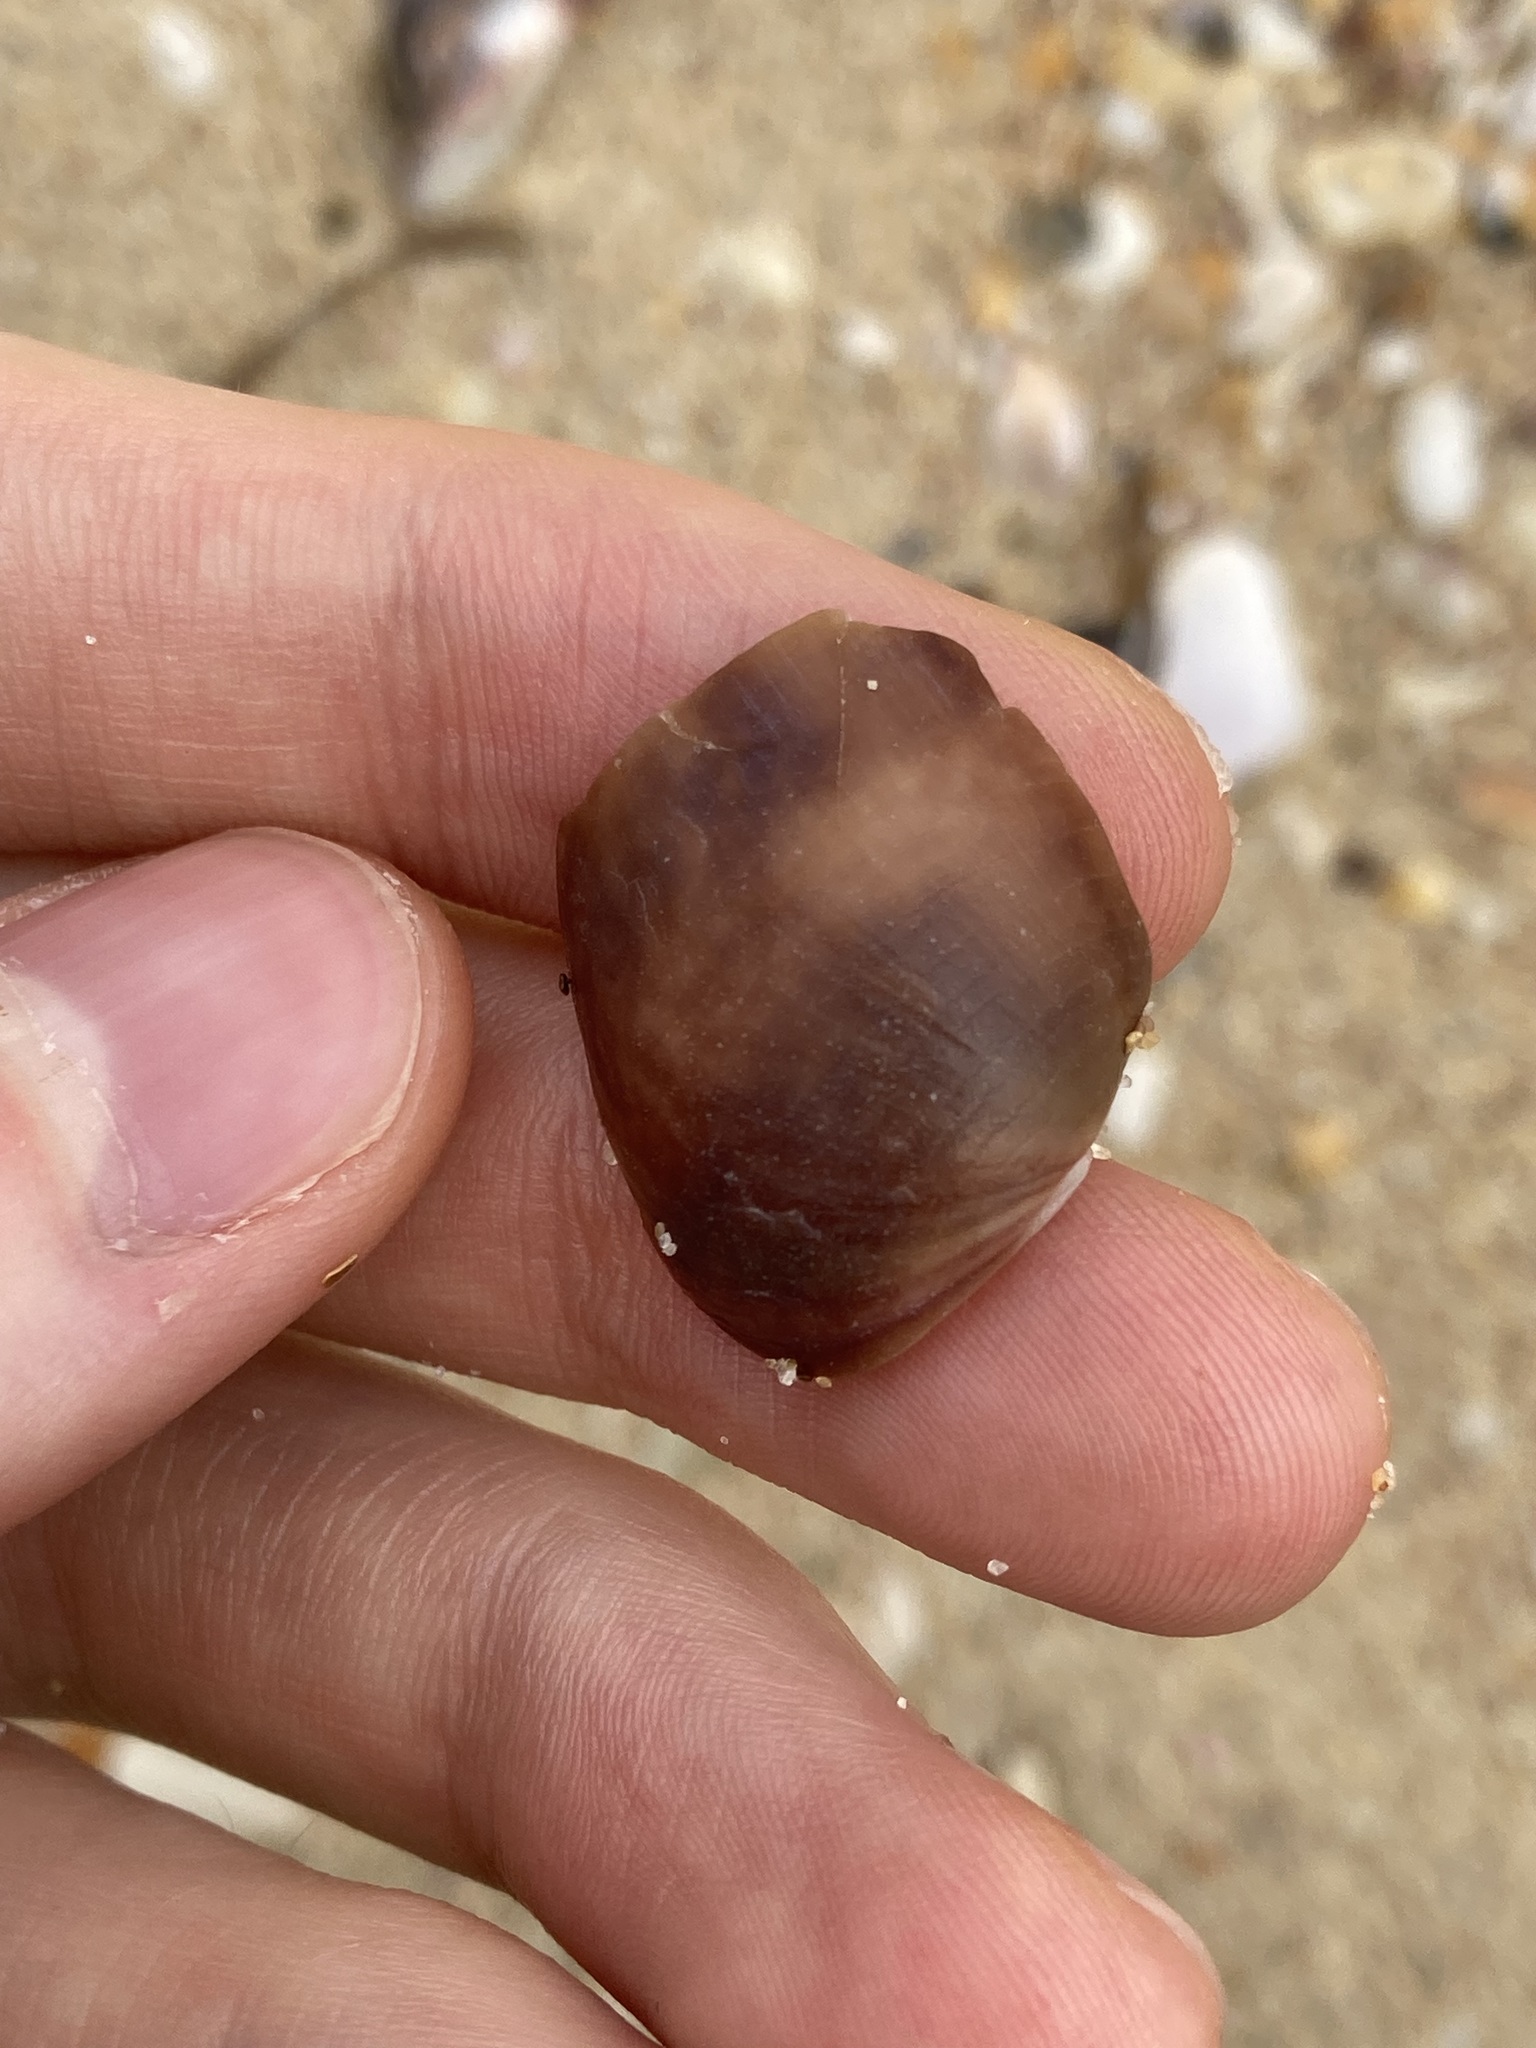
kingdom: Animalia
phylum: Mollusca
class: Gastropoda
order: Cephalaspidea
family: Bullidae
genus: Bulla
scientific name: Bulla quoyii
